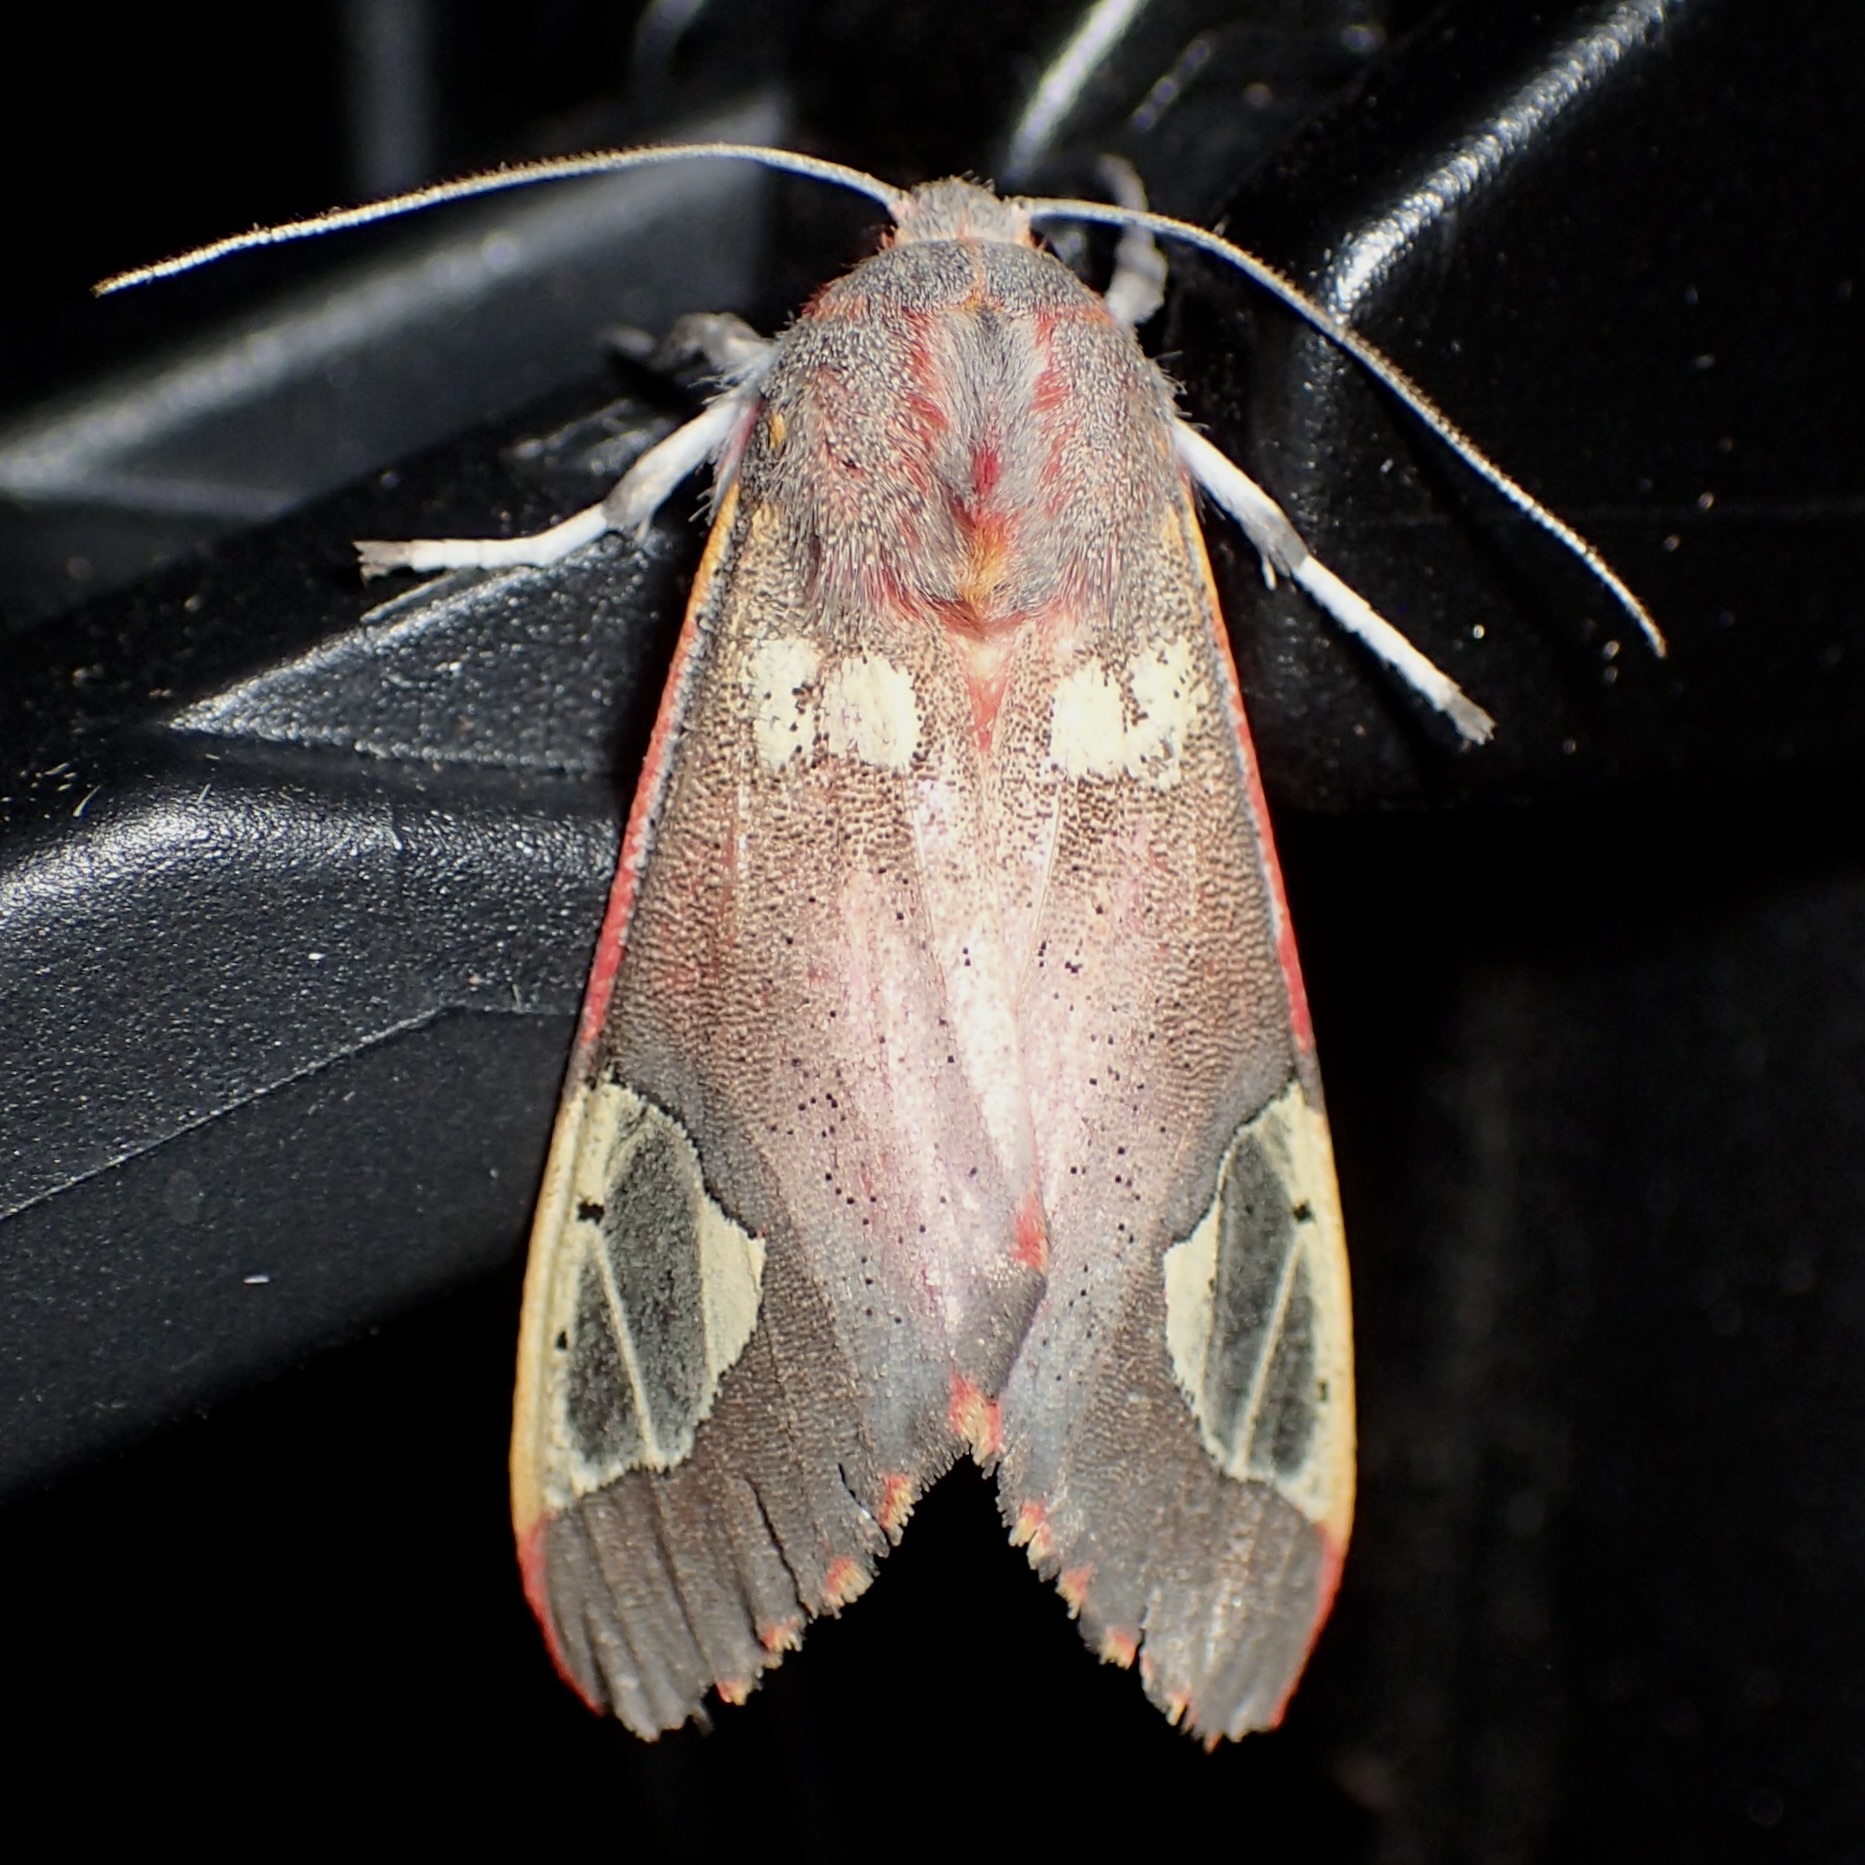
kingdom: Animalia
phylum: Arthropoda
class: Insecta
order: Lepidoptera
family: Erebidae
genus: Bertholdia
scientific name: Bertholdia trigona
